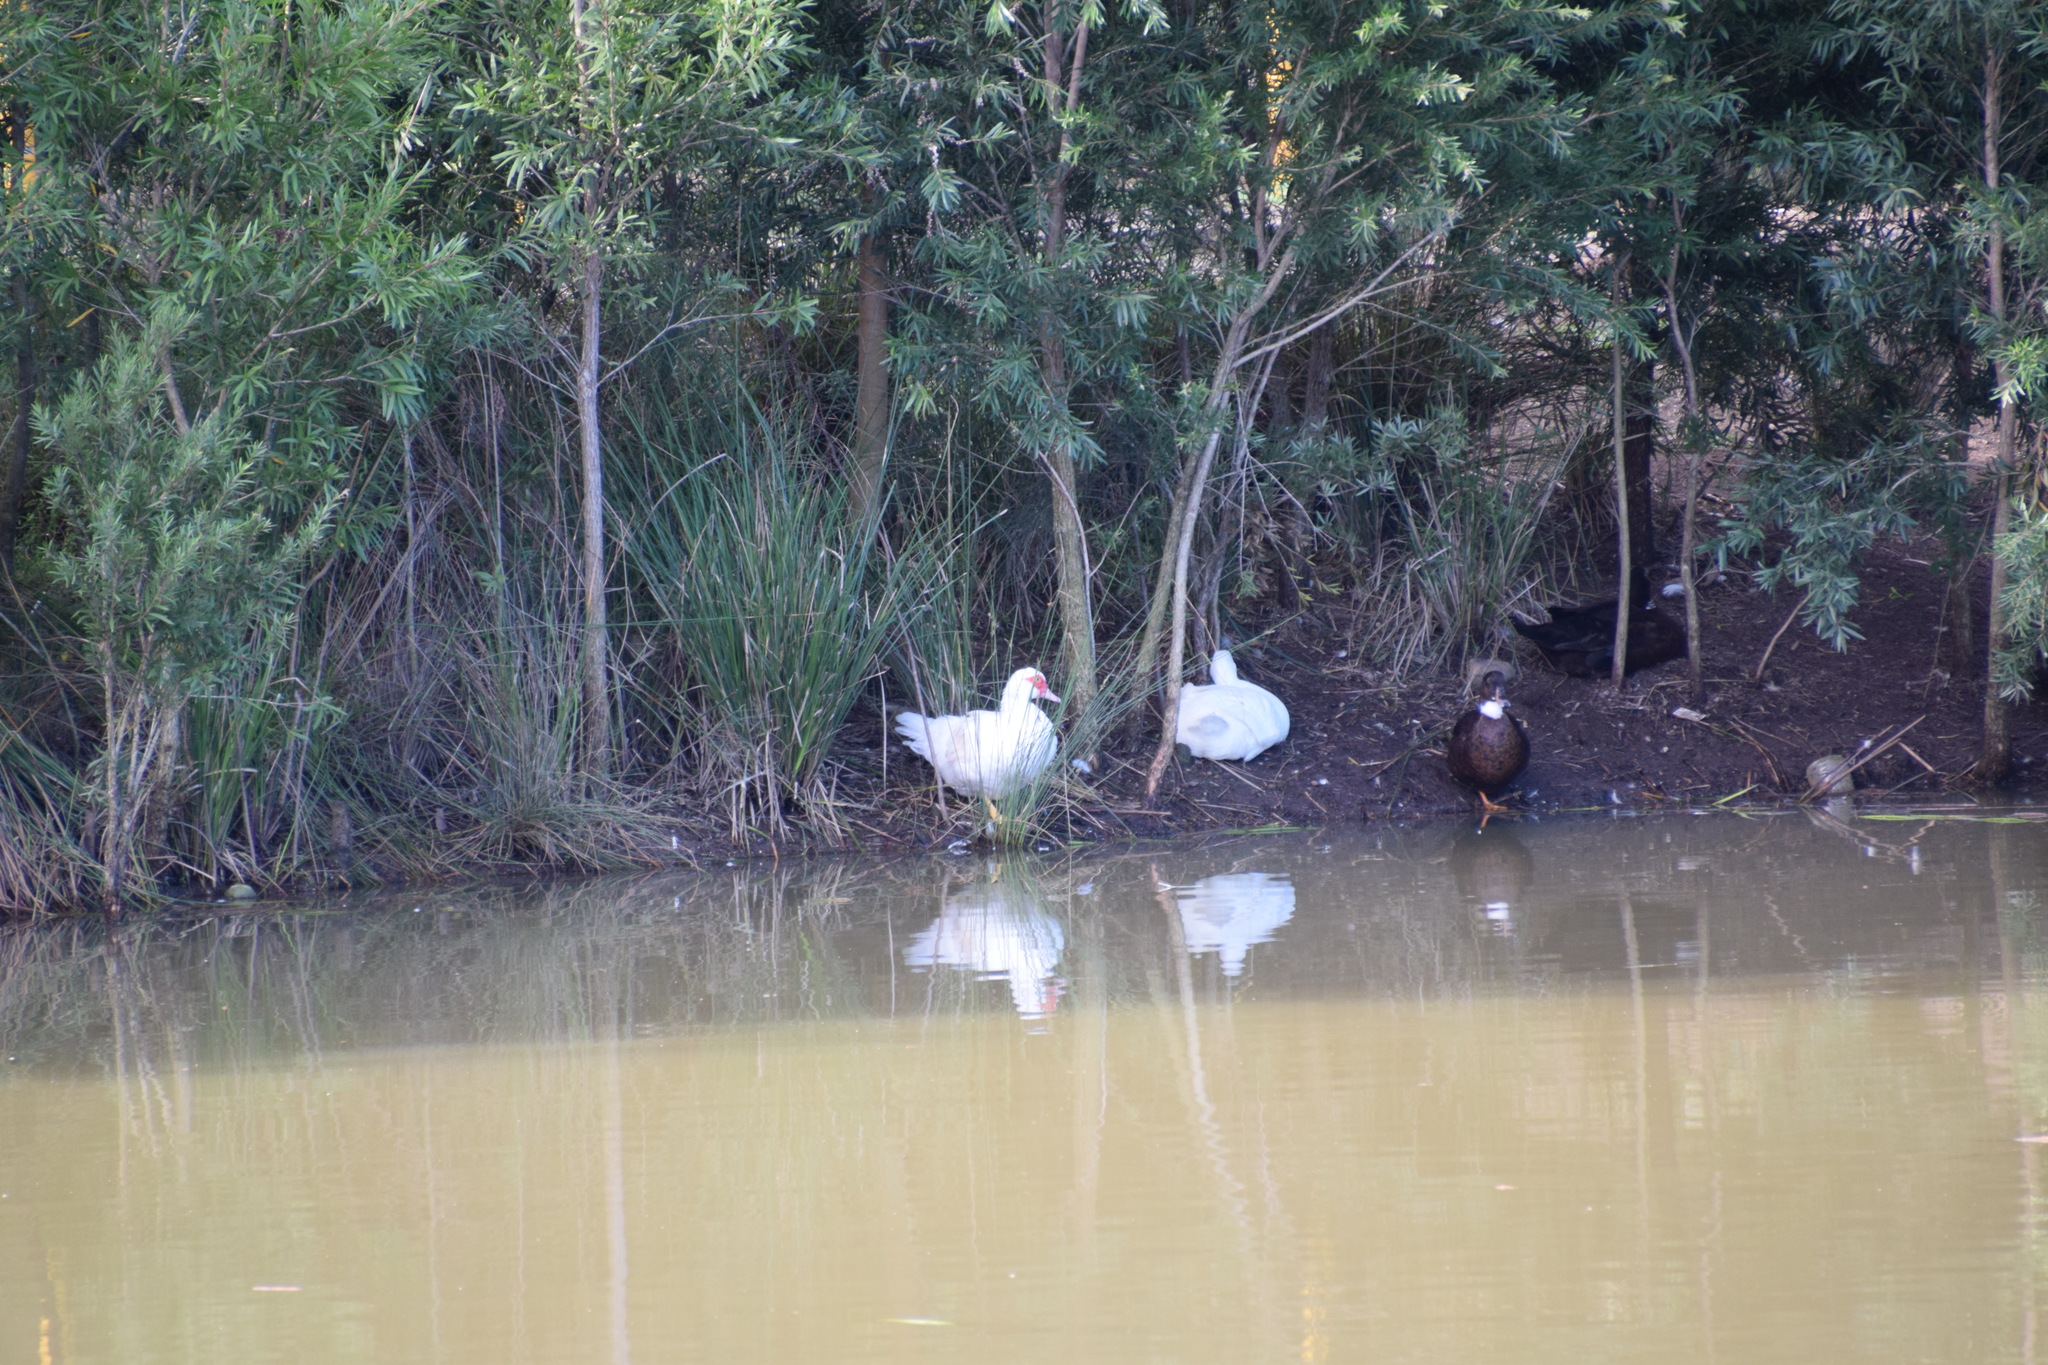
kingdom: Animalia
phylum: Chordata
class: Aves
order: Anseriformes
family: Anatidae
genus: Anas
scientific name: Anas platyrhynchos
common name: Mallard
